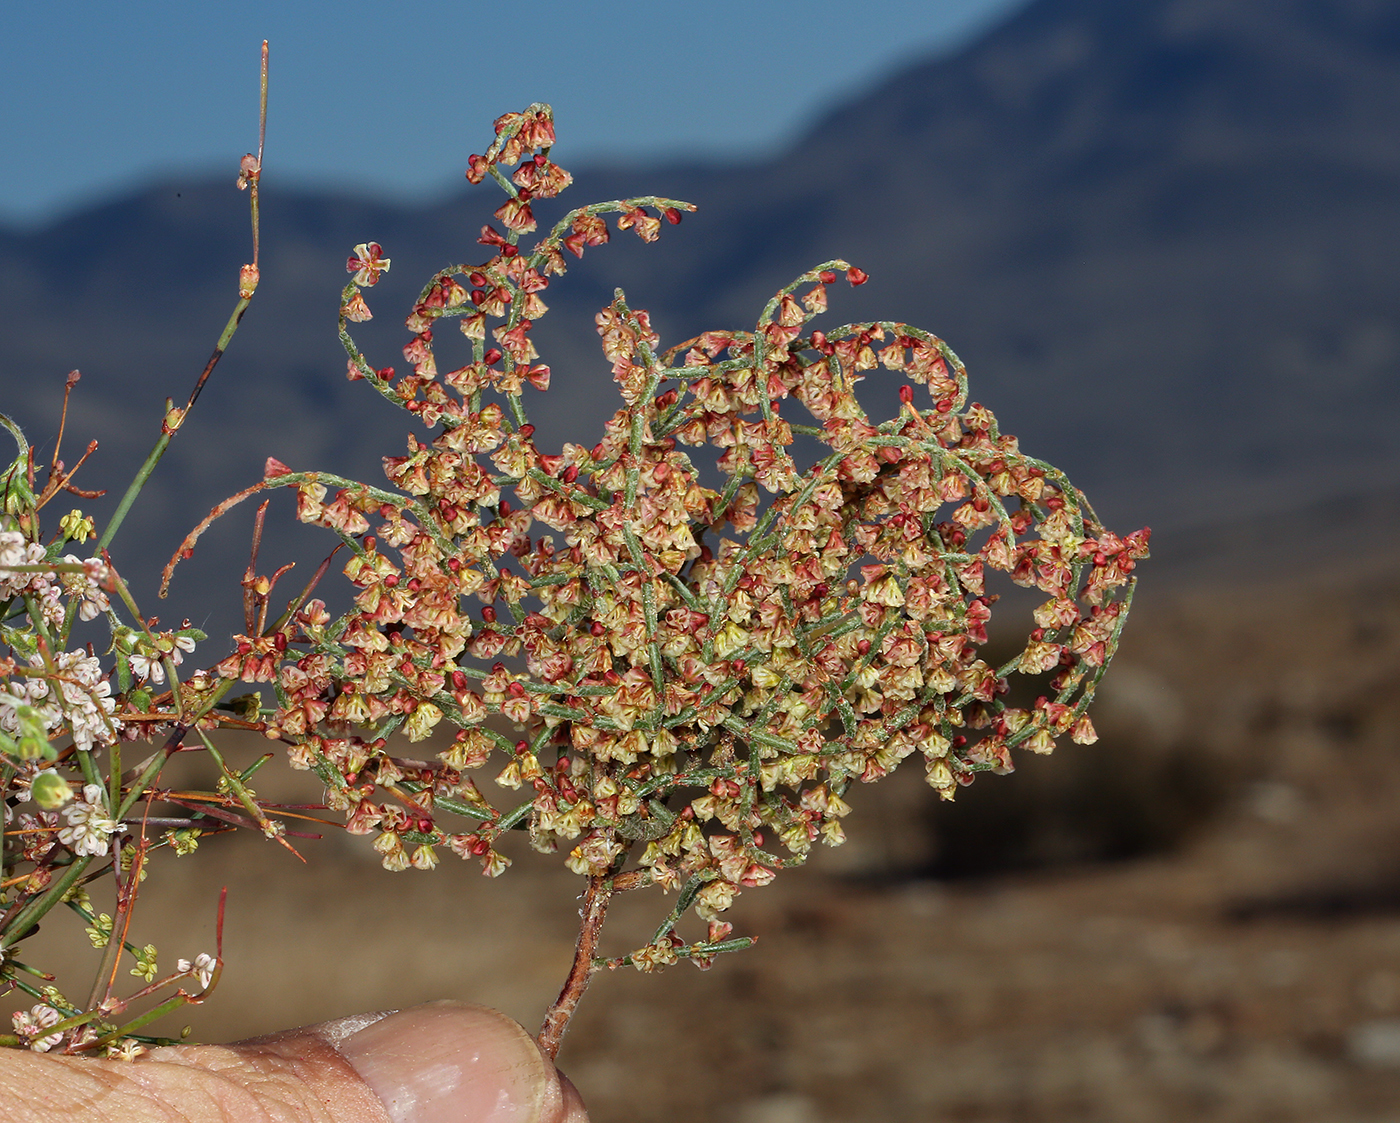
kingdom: Plantae
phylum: Tracheophyta
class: Magnoliopsida
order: Caryophyllales
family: Polygonaceae
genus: Eriogonum
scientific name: Eriogonum nidularium
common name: Bird's-nest wild buckwheat
